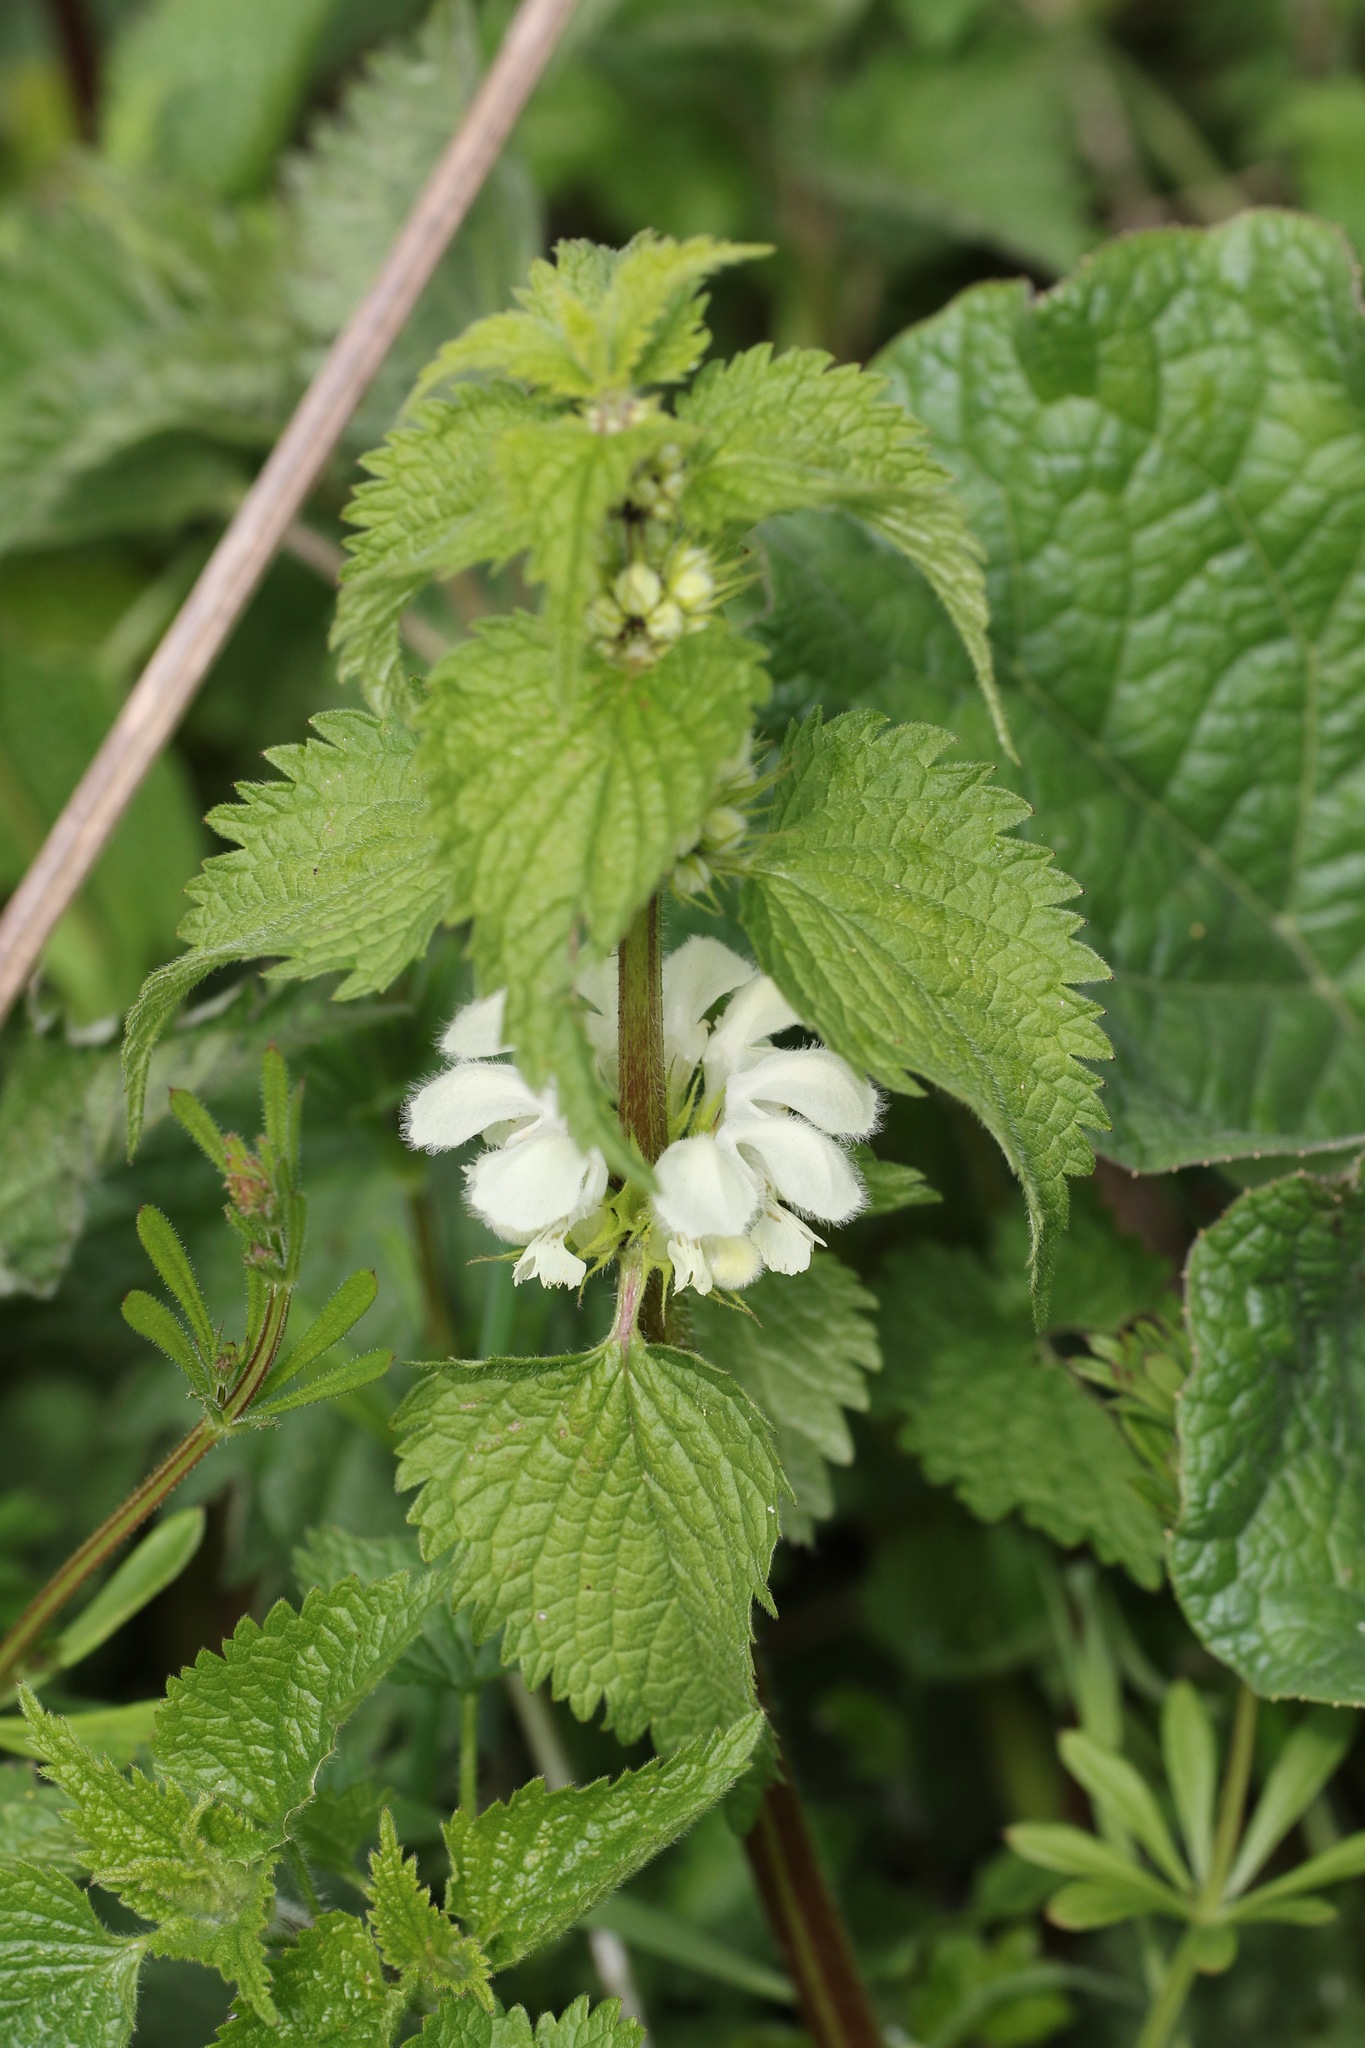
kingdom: Plantae
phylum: Tracheophyta
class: Magnoliopsida
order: Lamiales
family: Lamiaceae
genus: Lamium
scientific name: Lamium album
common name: White dead-nettle
